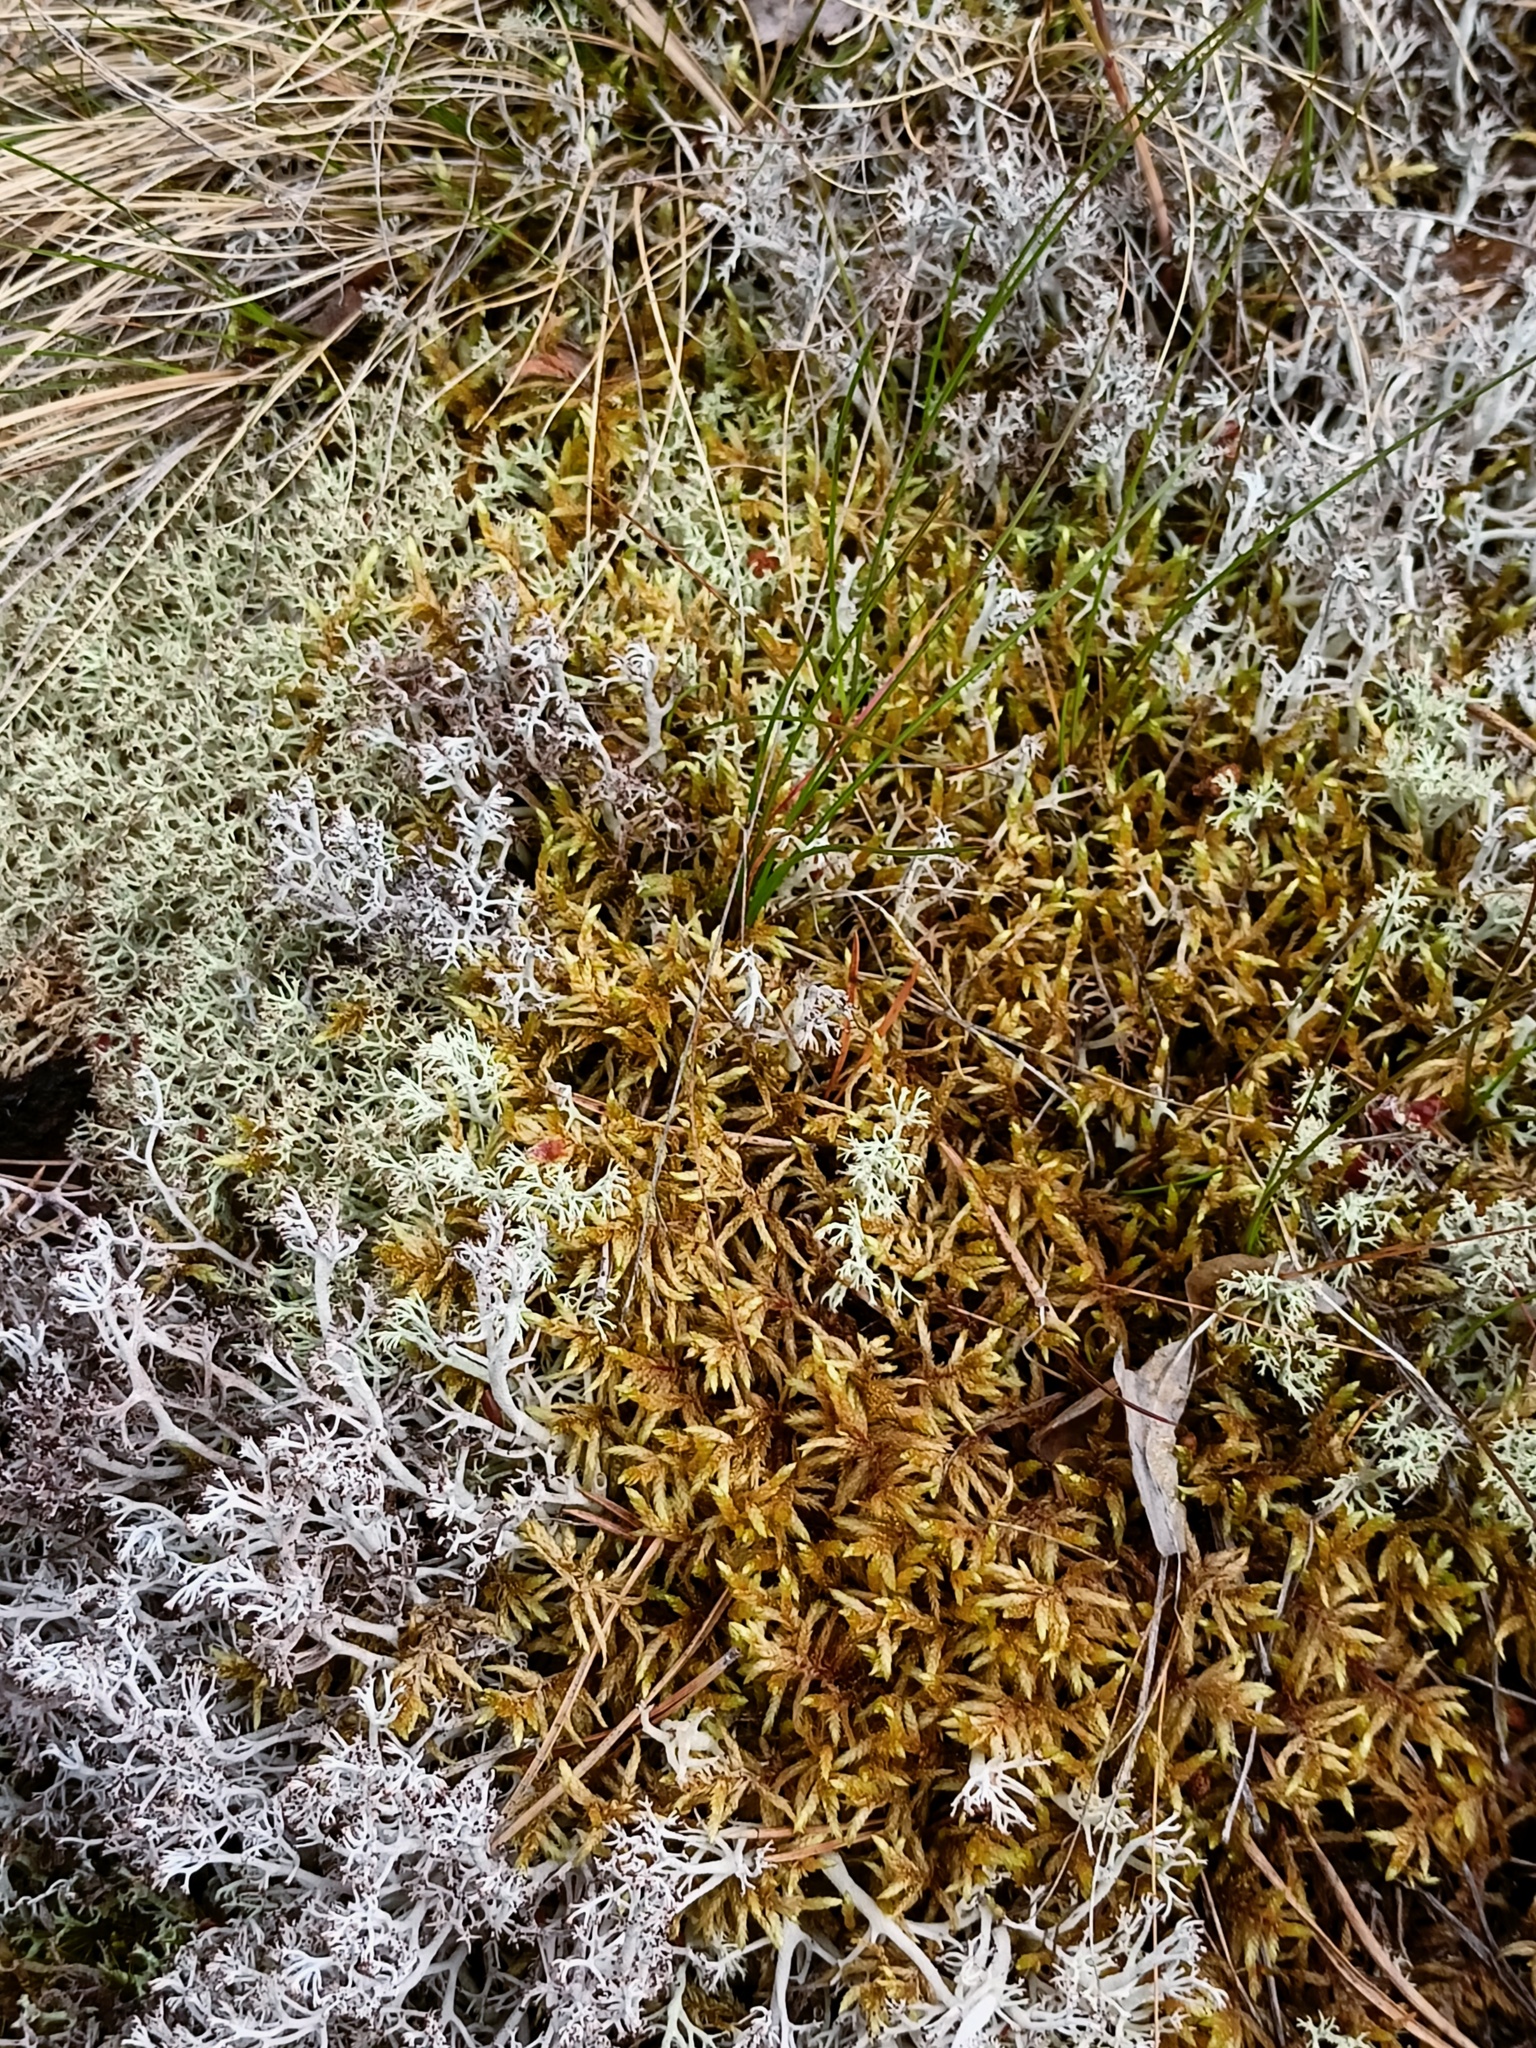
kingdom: Plantae
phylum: Bryophyta
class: Bryopsida
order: Hypnales
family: Hylocomiaceae
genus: Pleurozium
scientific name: Pleurozium schreberi
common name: Red-stemmed feather moss
